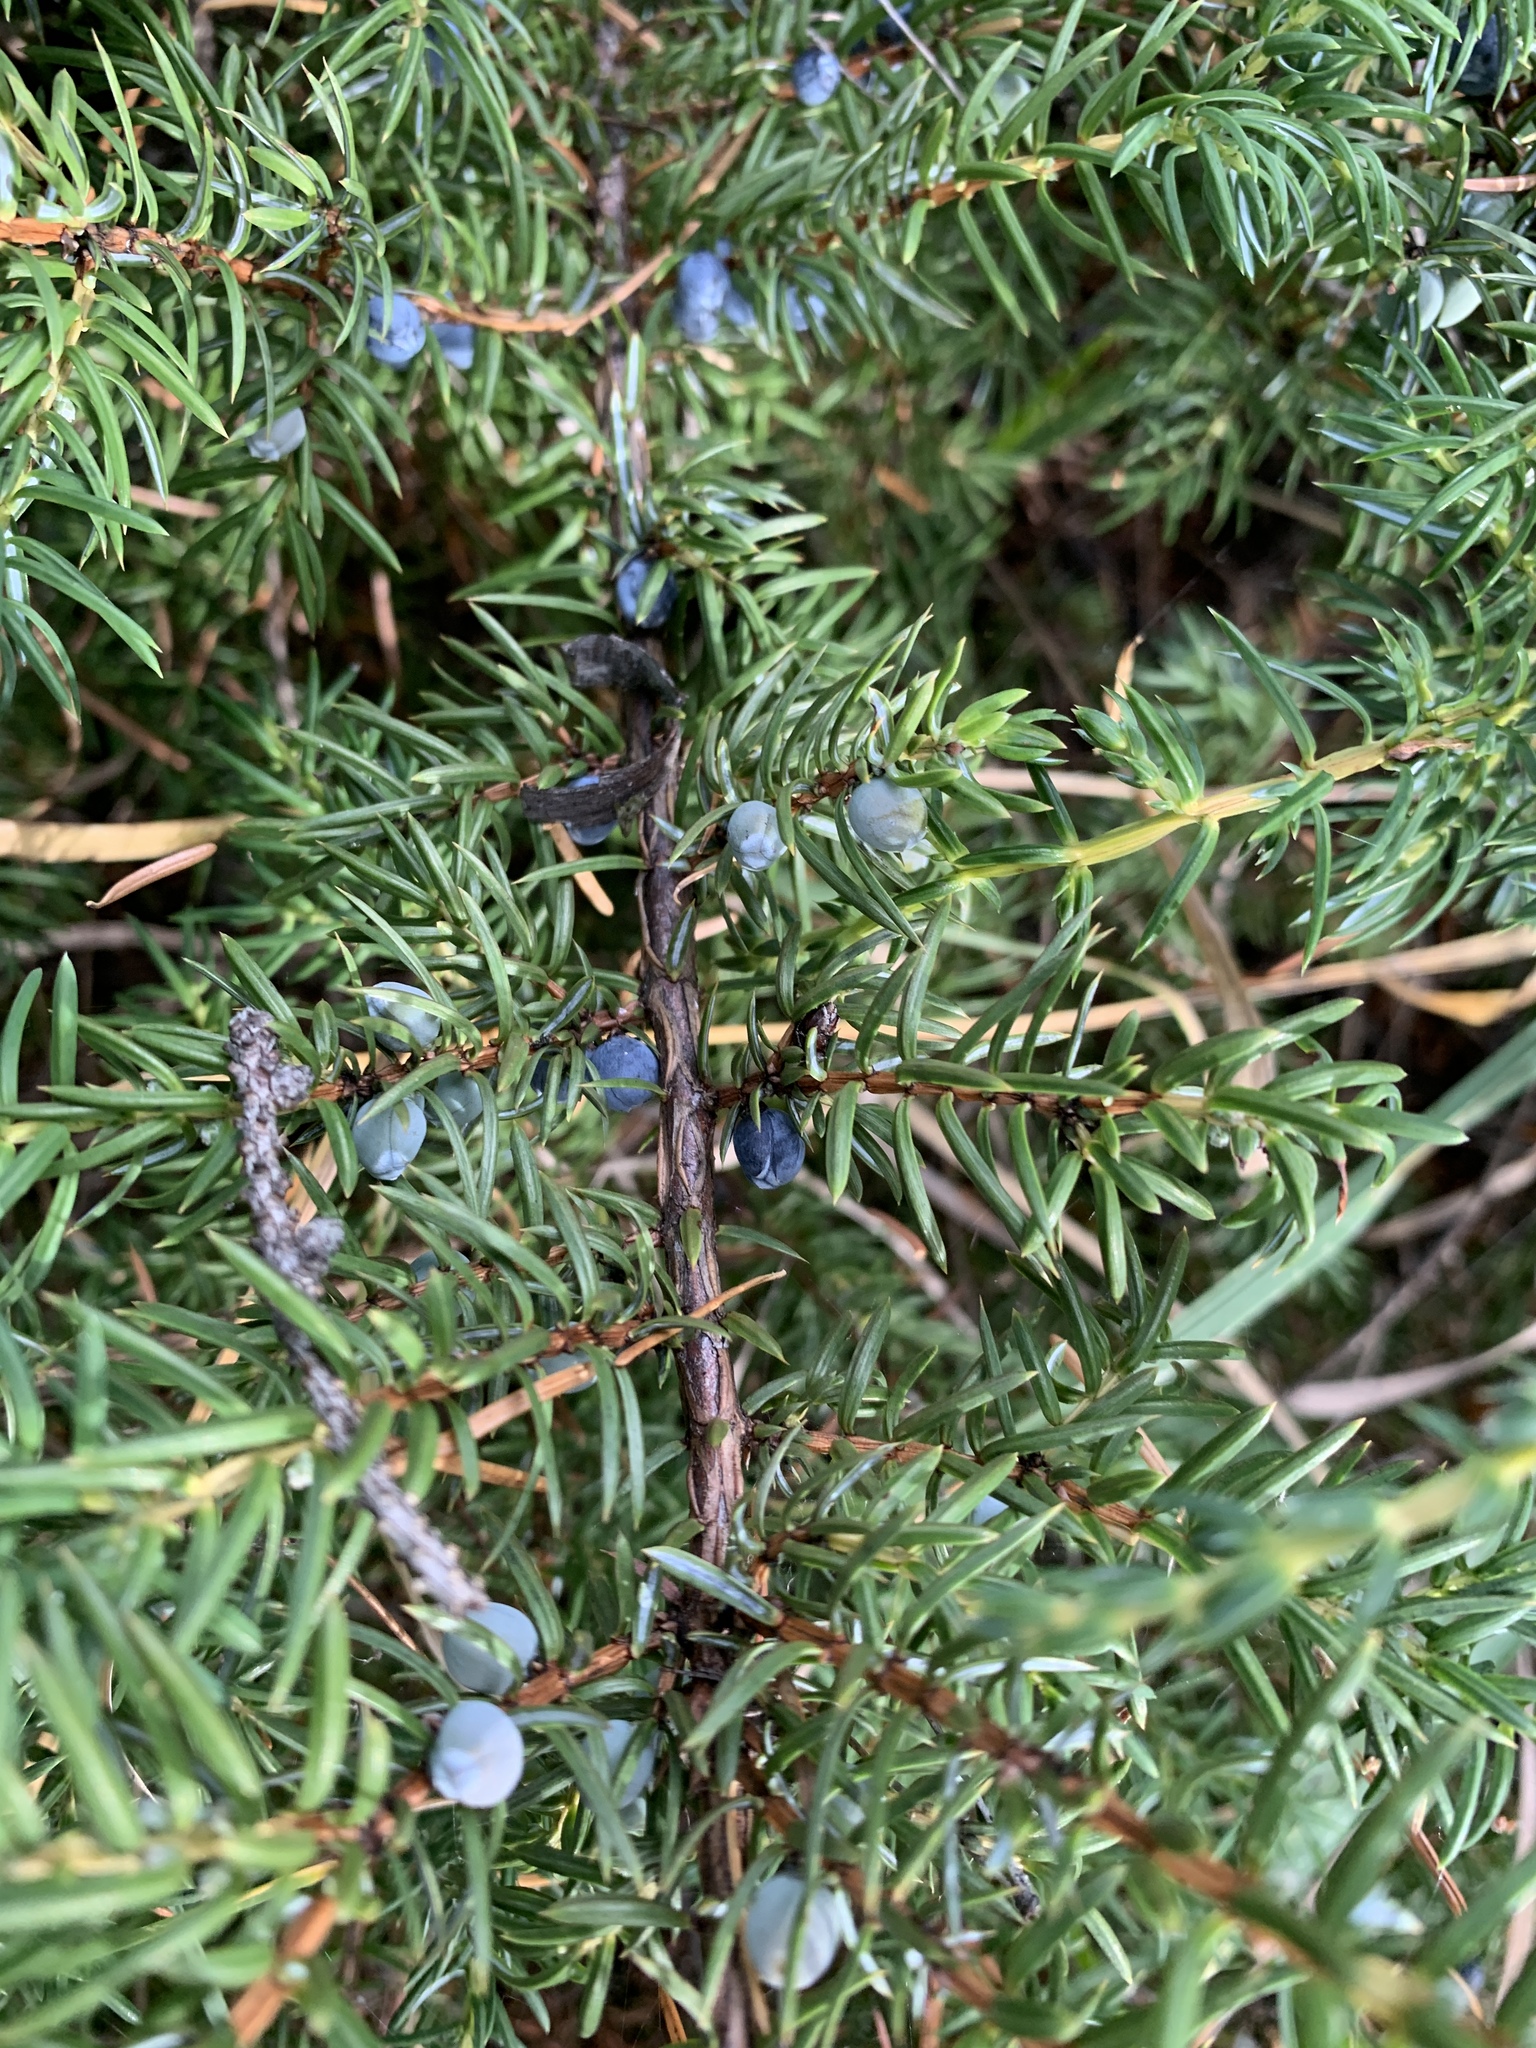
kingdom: Plantae
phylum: Tracheophyta
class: Pinopsida
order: Pinales
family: Cupressaceae
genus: Juniperus
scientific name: Juniperus communis
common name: Common juniper
